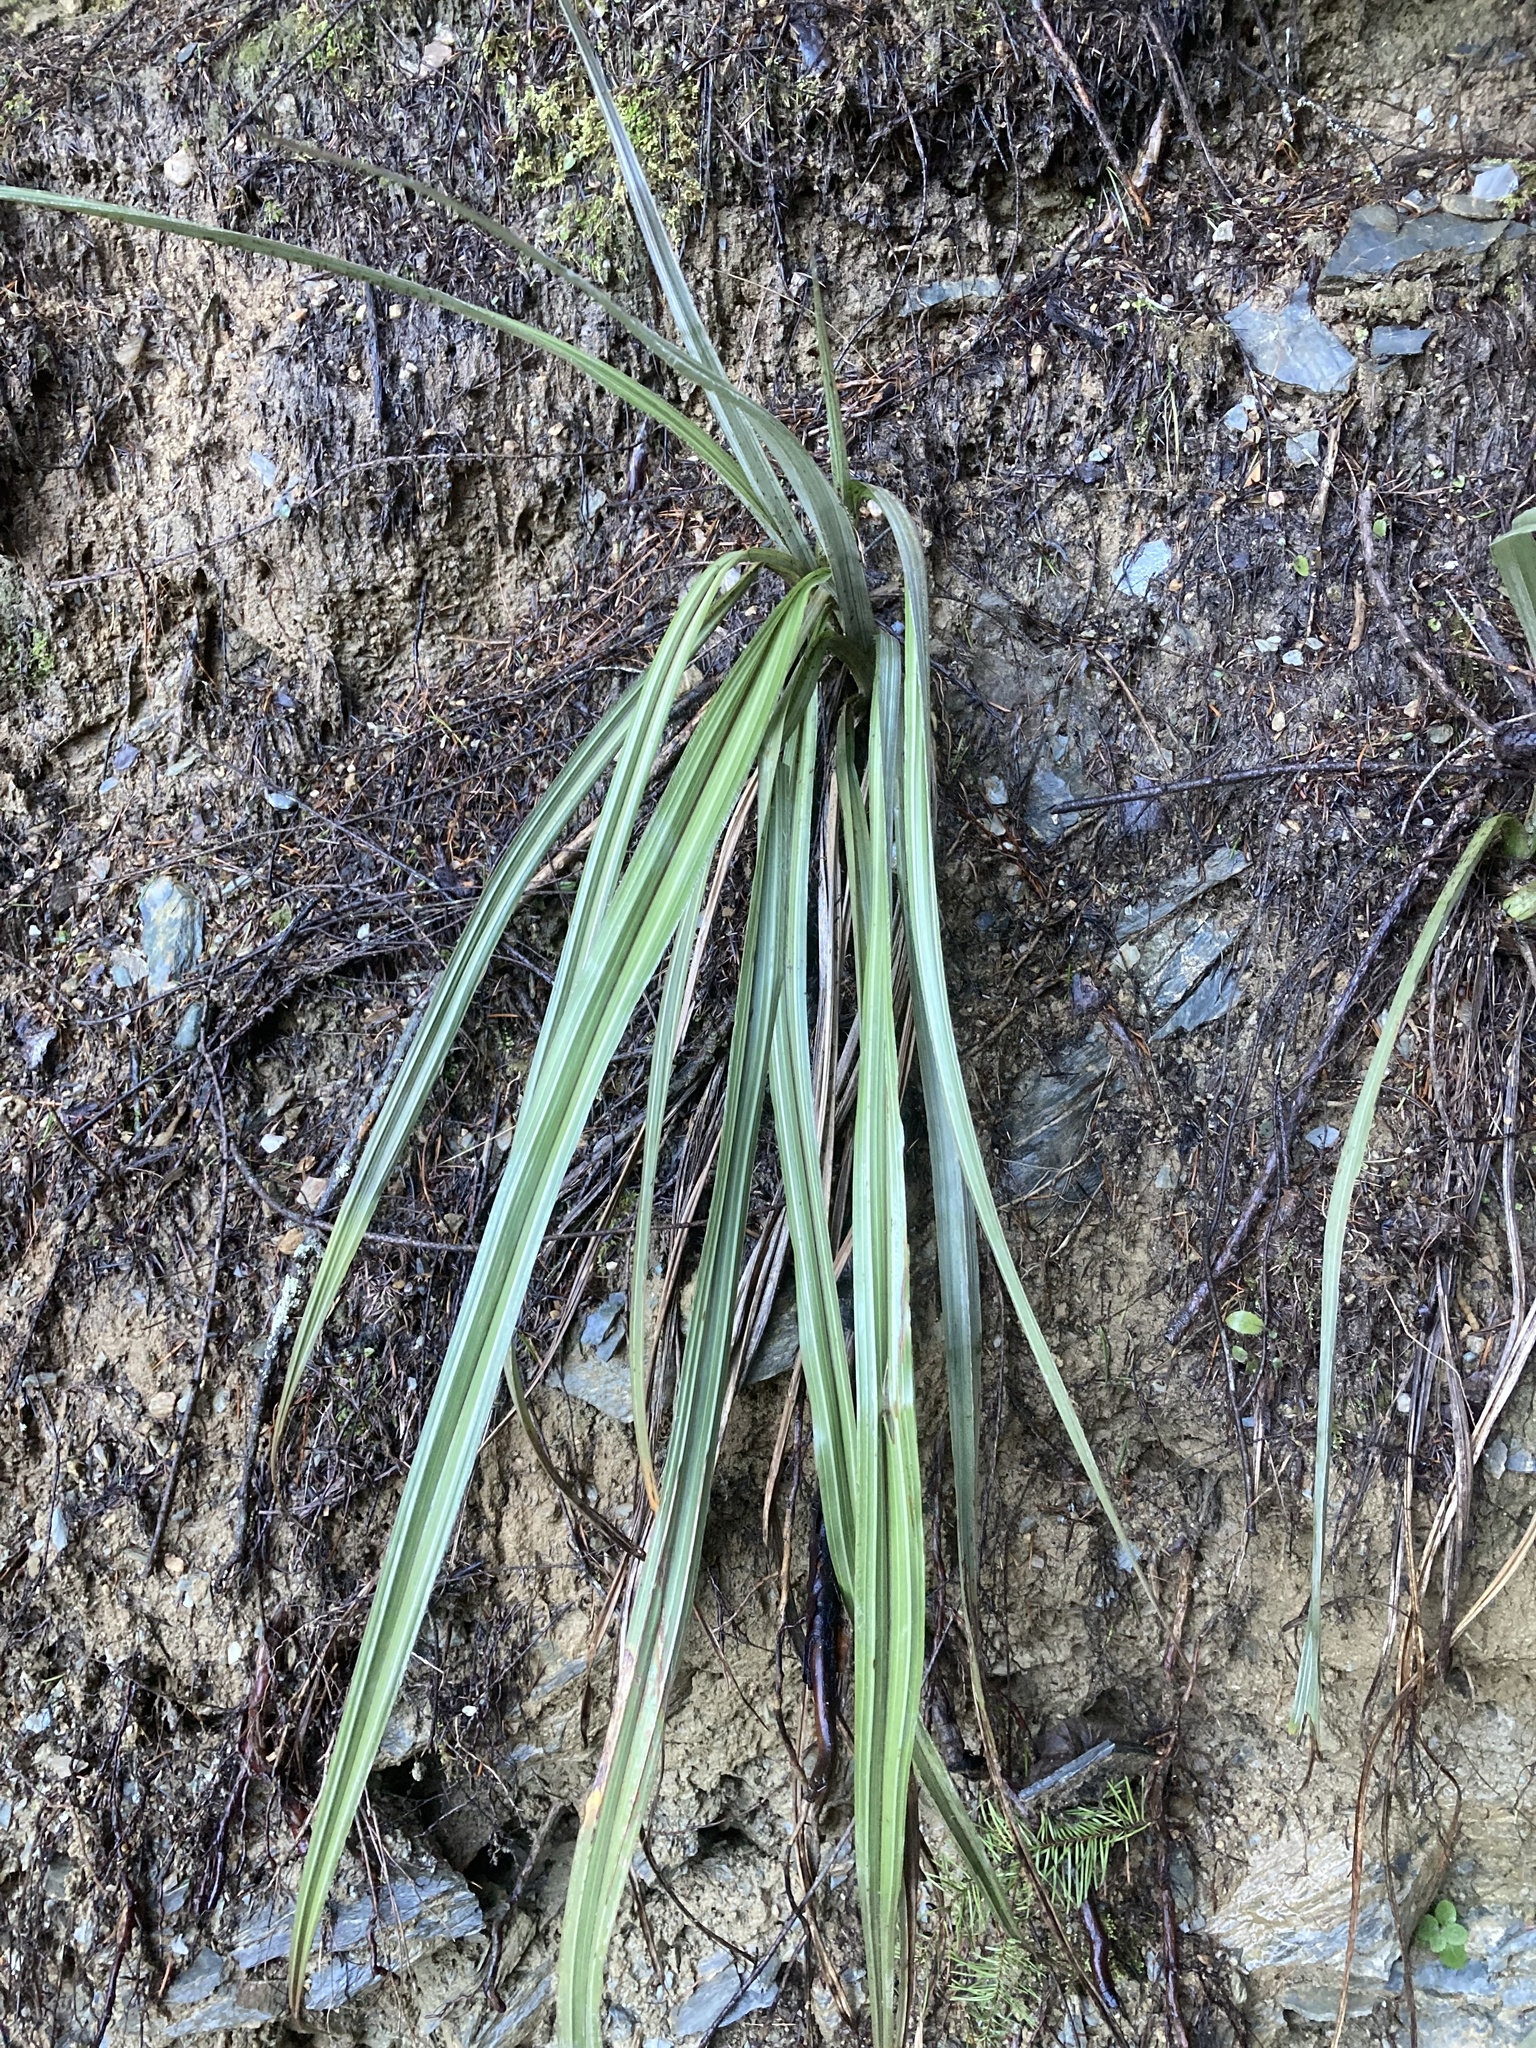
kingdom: Plantae
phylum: Tracheophyta
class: Liliopsida
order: Asparagales
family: Asteliaceae
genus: Astelia
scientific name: Astelia fragrans
